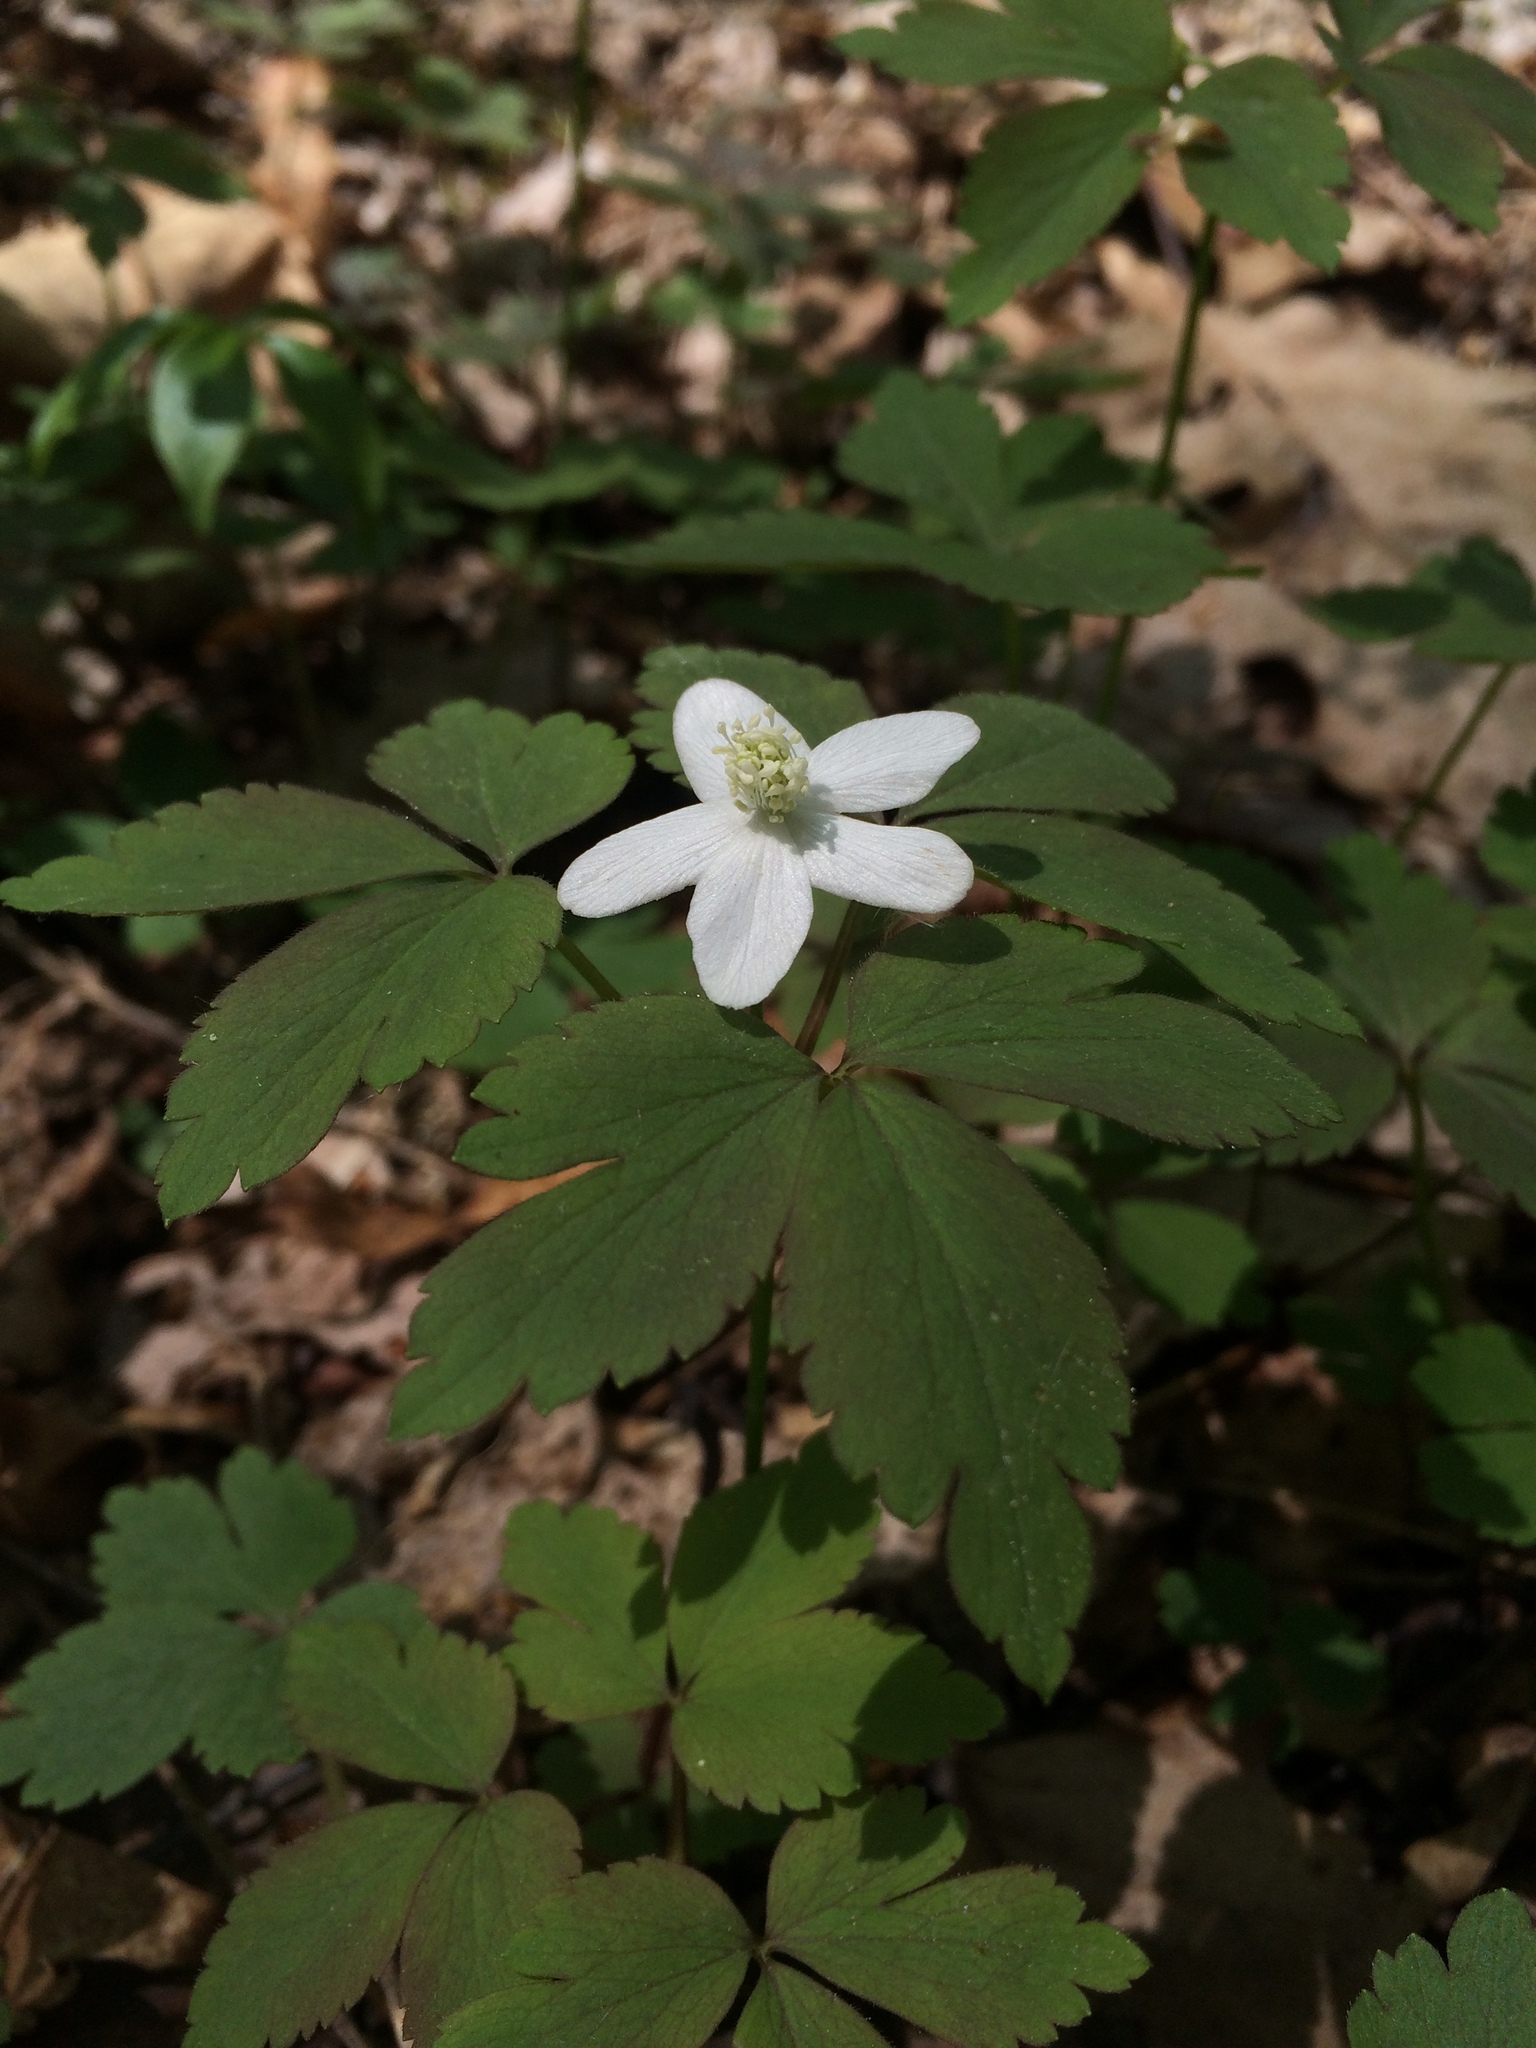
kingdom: Plantae
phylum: Tracheophyta
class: Magnoliopsida
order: Ranunculales
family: Ranunculaceae
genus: Anemone
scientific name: Anemone quinquefolia
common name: Wood anemone
